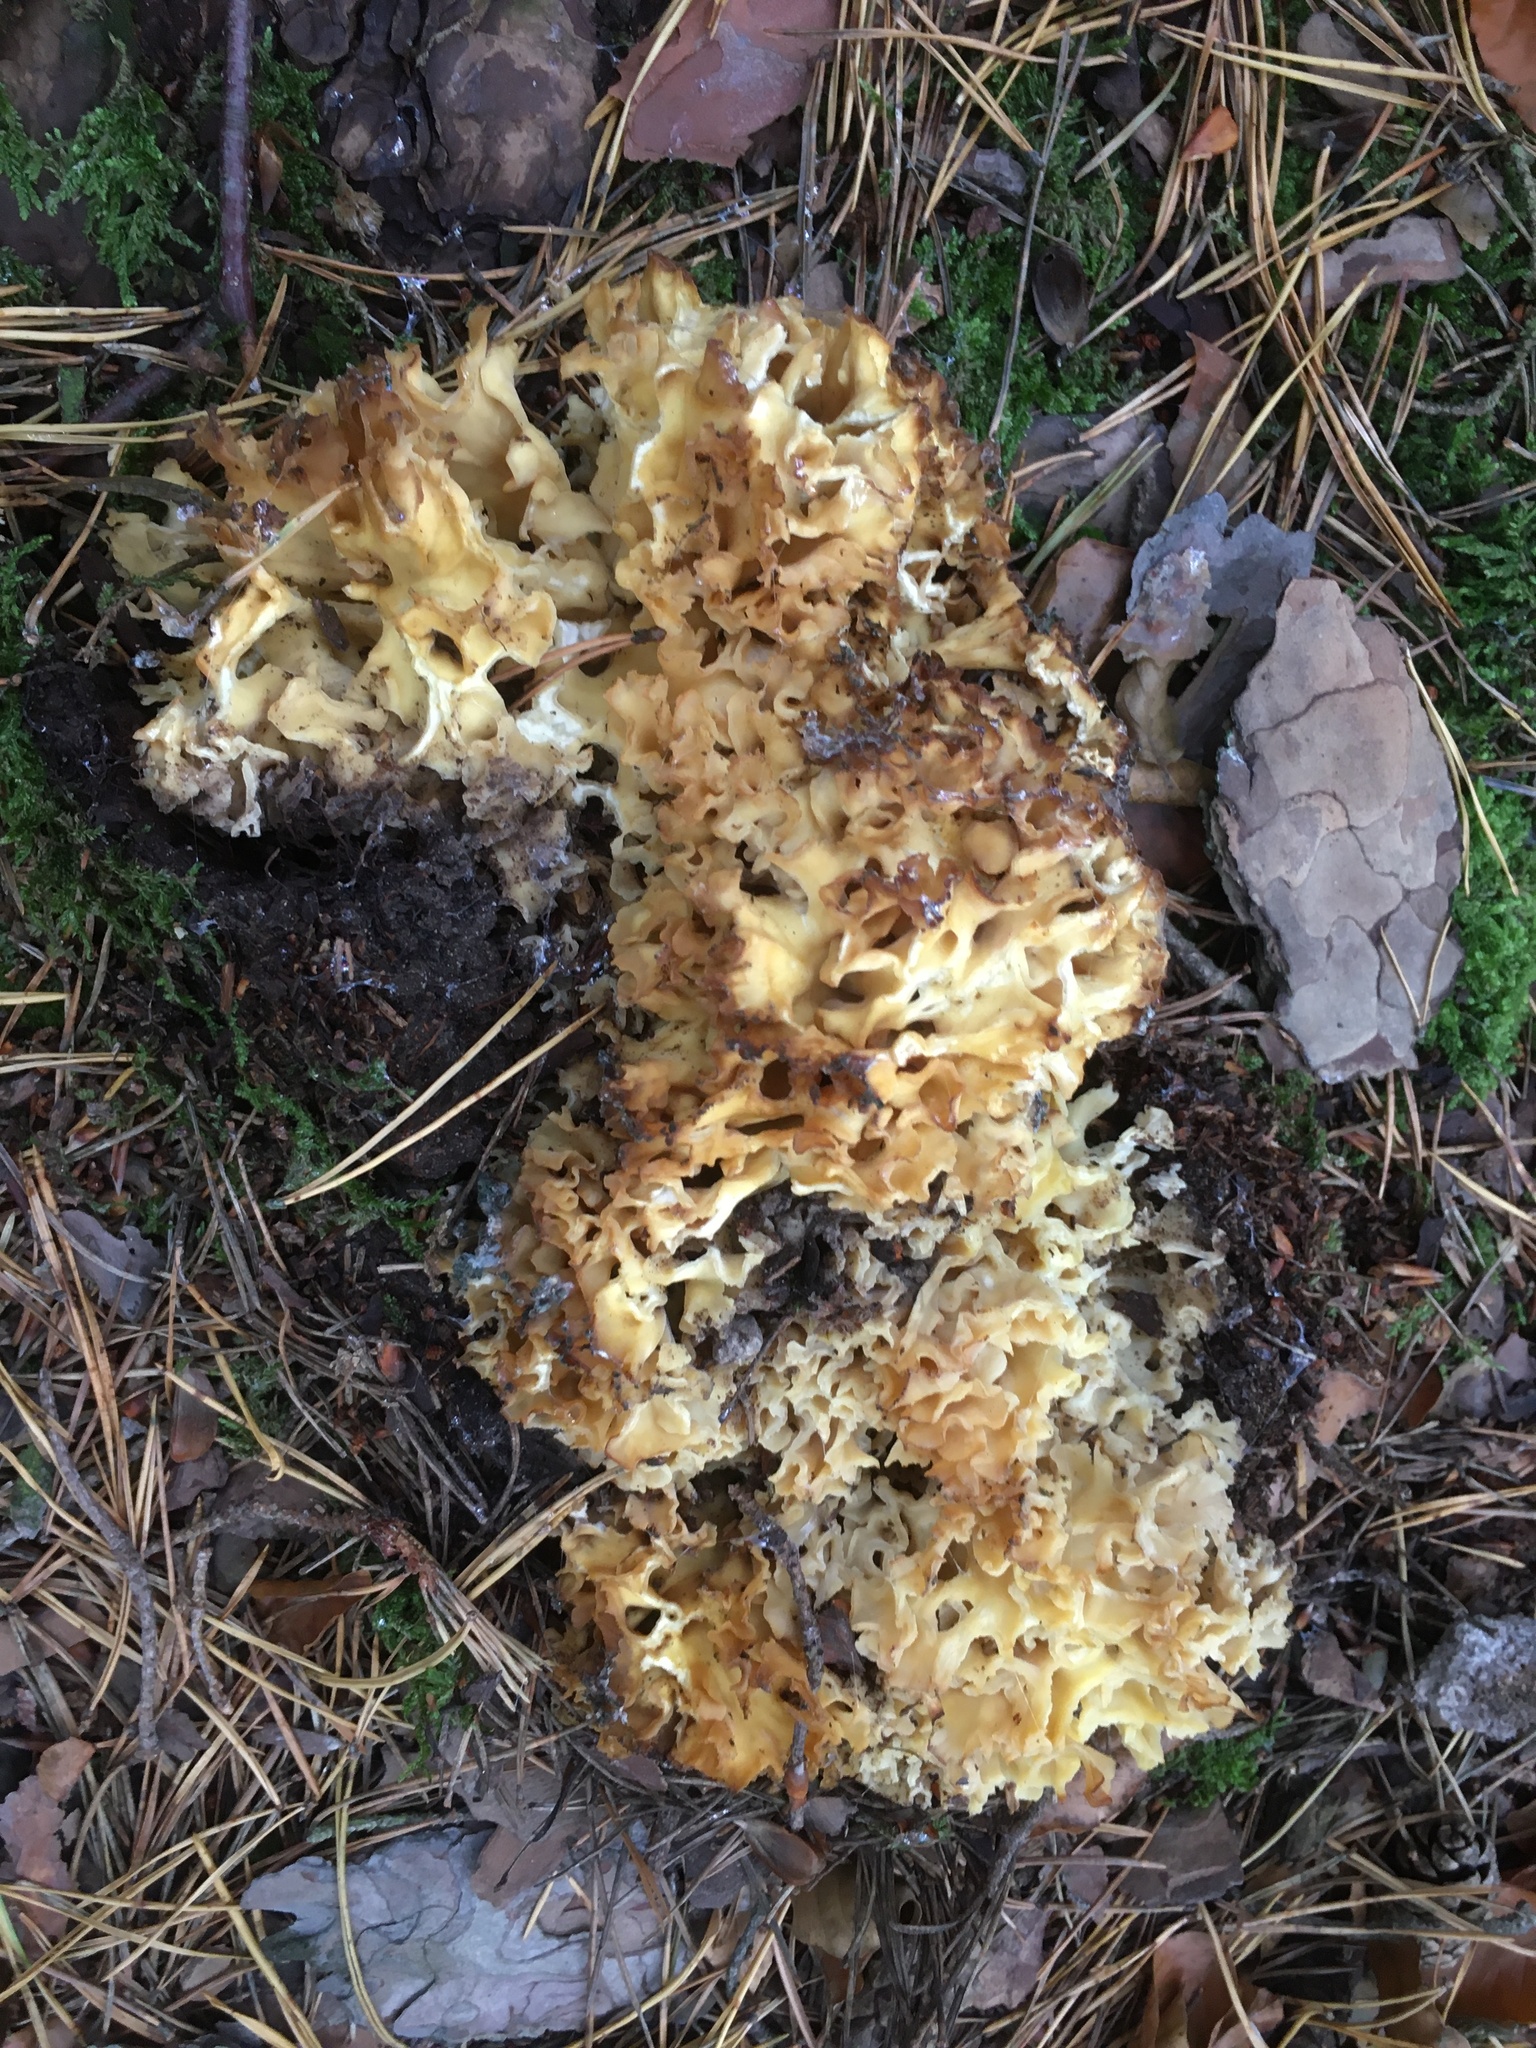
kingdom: Fungi
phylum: Basidiomycota
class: Agaricomycetes
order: Polyporales
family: Sparassidaceae
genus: Sparassis
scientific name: Sparassis crispa
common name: Brain fungus
